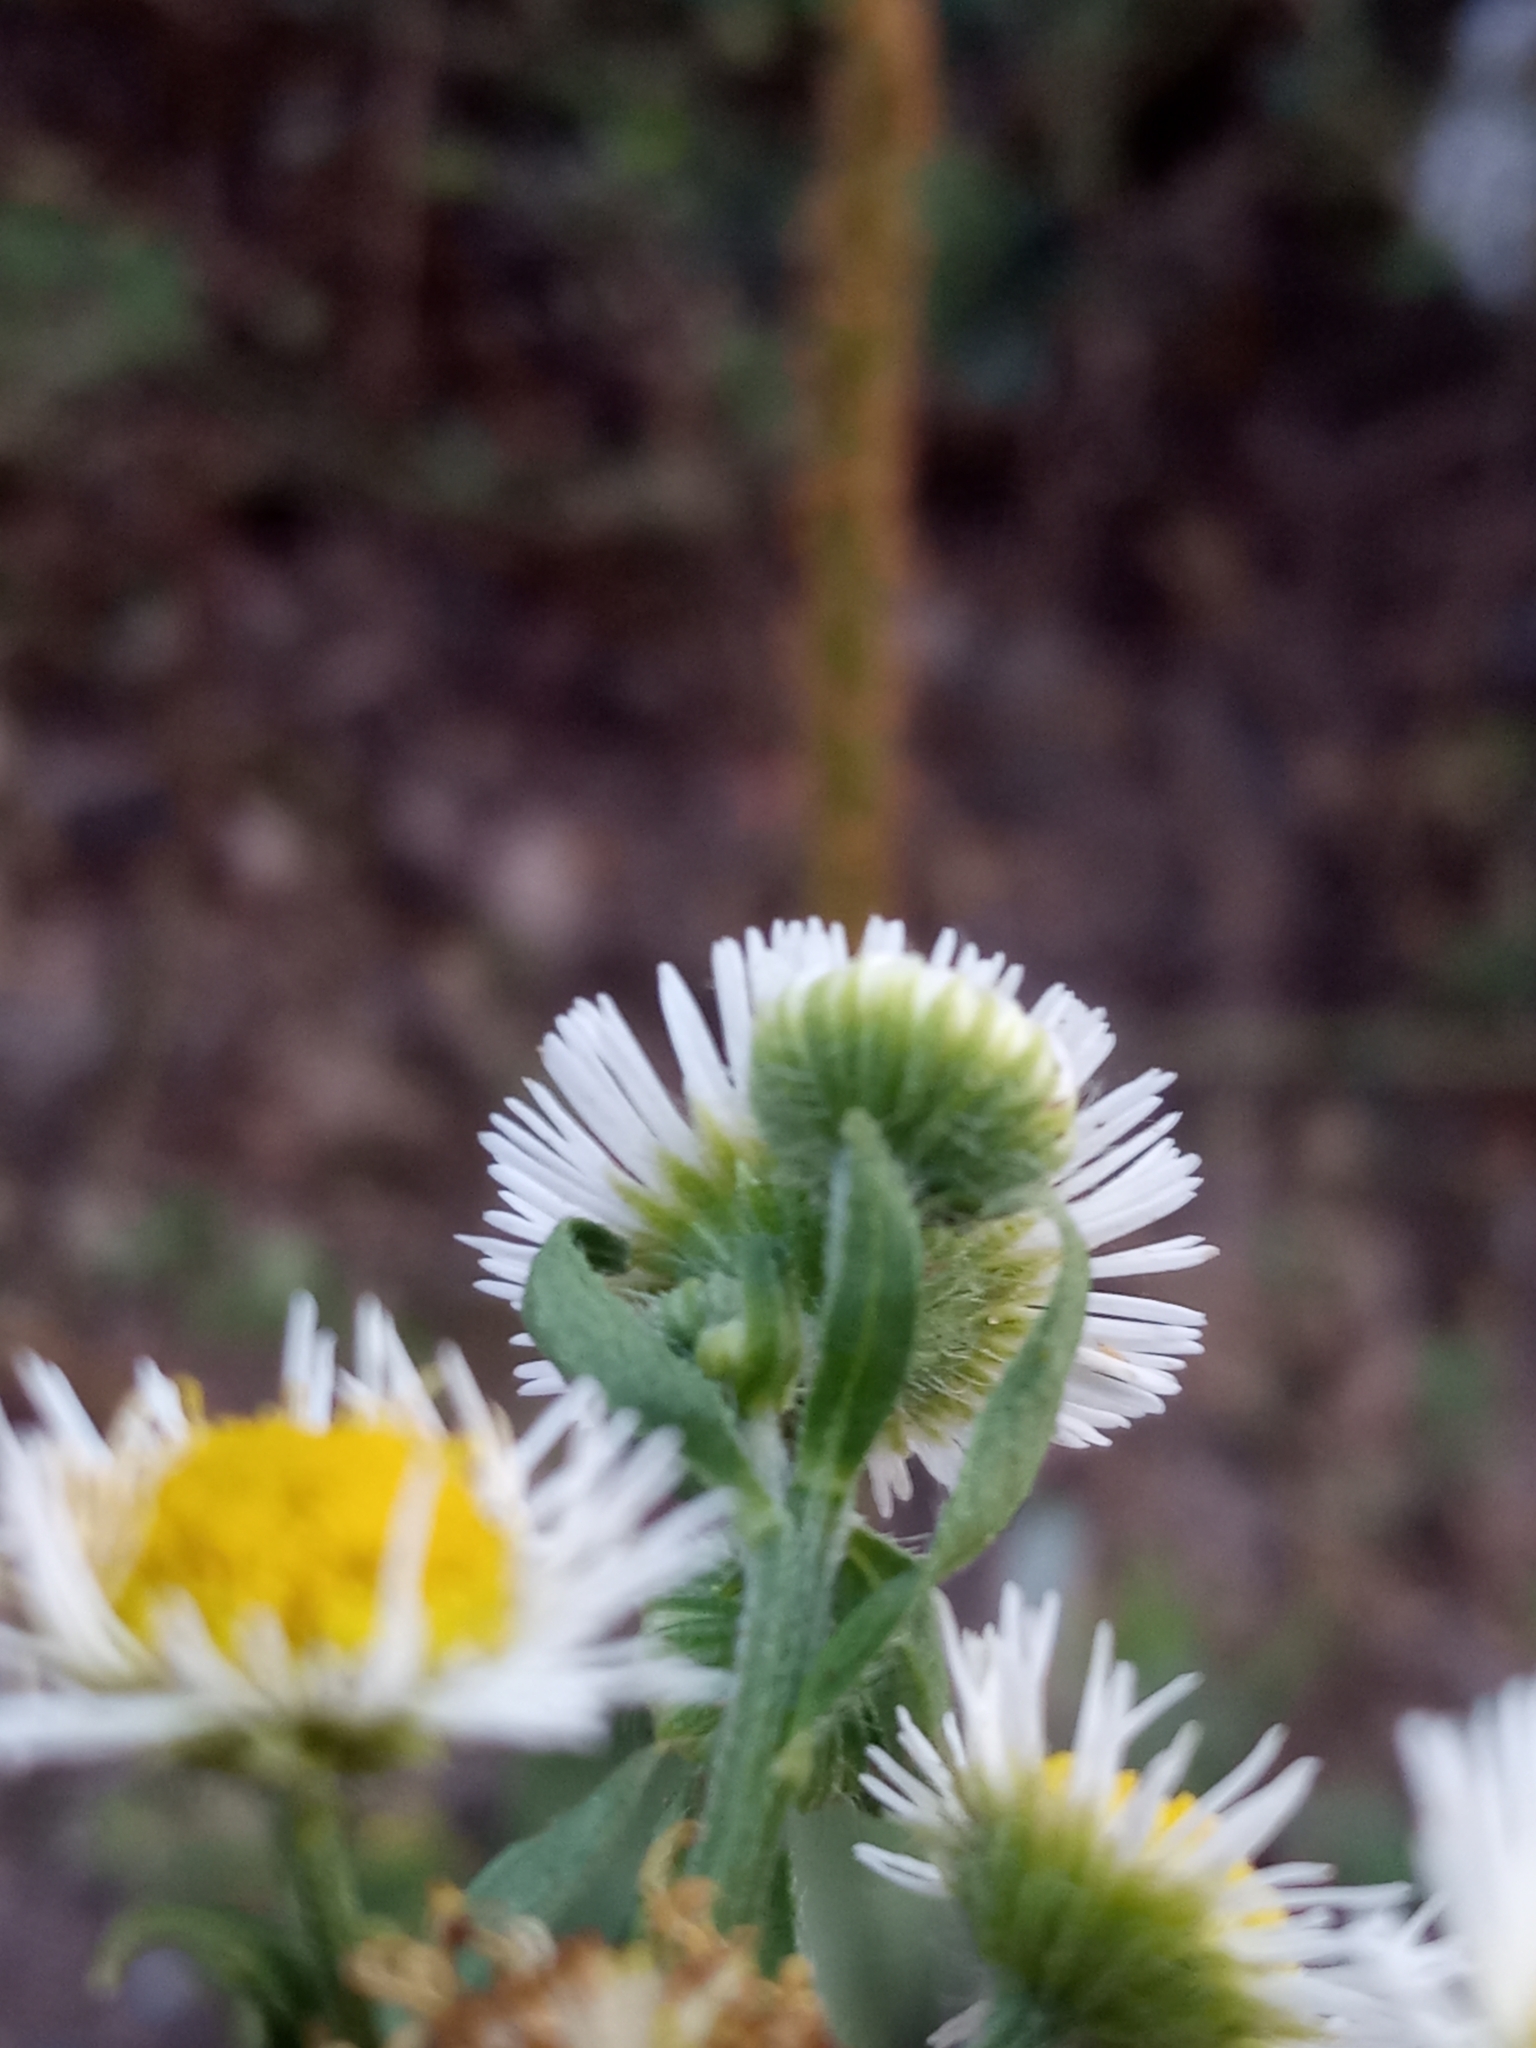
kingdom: Plantae
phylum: Tracheophyta
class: Magnoliopsida
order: Asterales
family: Asteraceae
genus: Erigeron
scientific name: Erigeron annuus
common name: Tall fleabane
